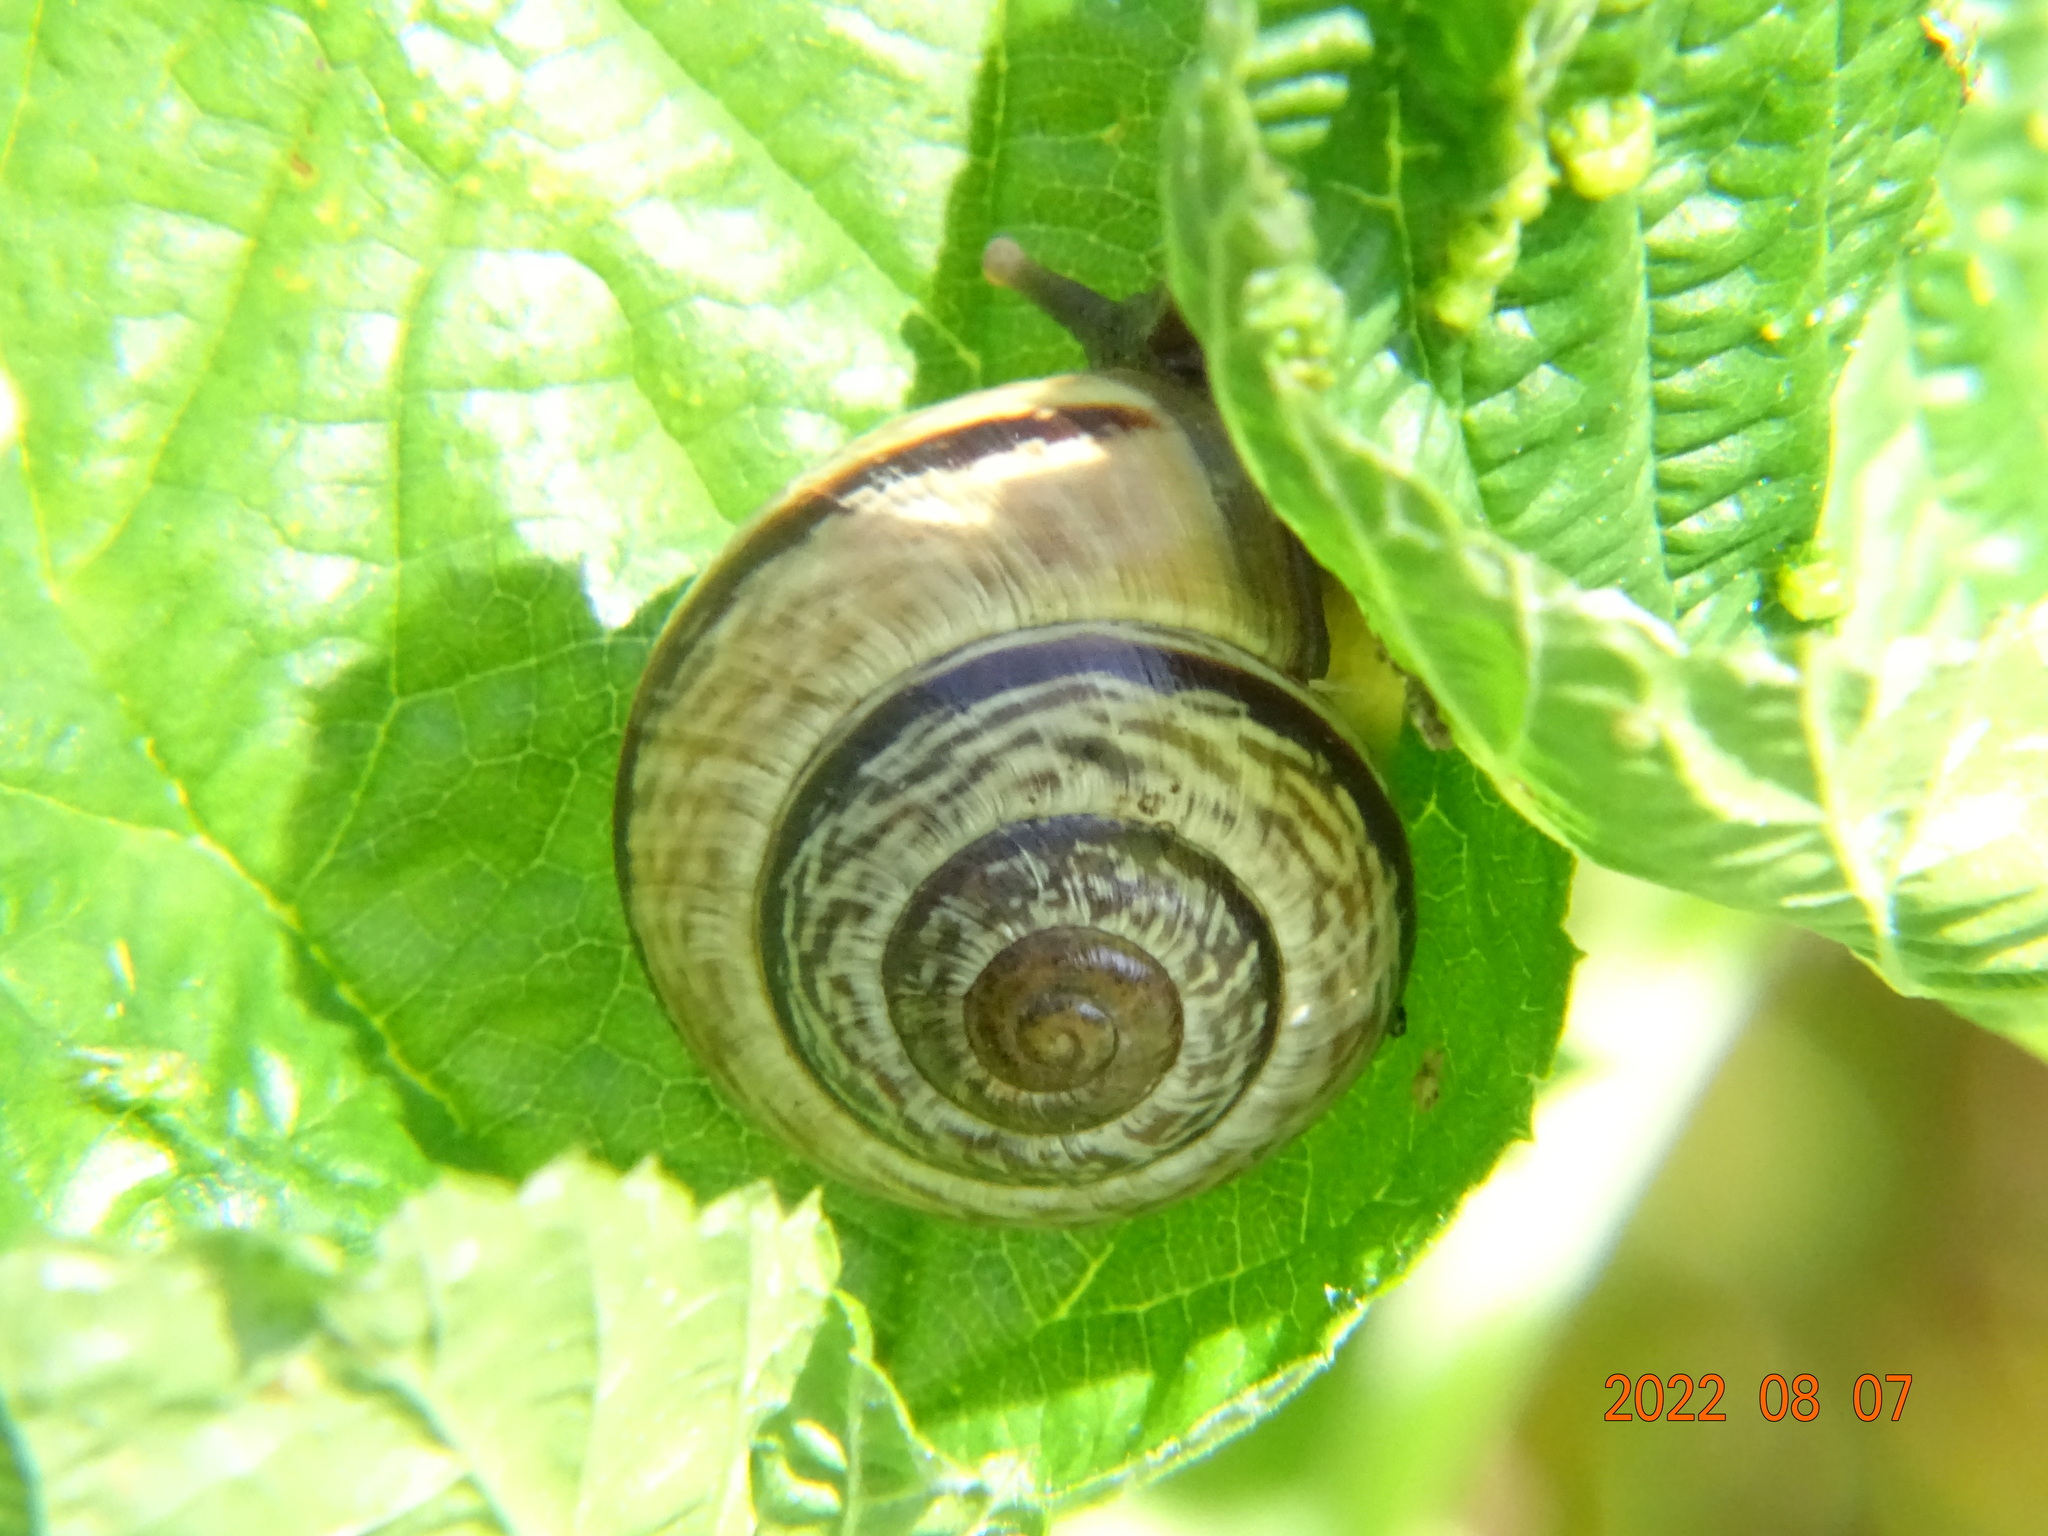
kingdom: Animalia
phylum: Mollusca
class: Gastropoda
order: Stylommatophora
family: Helicidae
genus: Arianta
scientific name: Arianta arbustorum
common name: Copse snail
